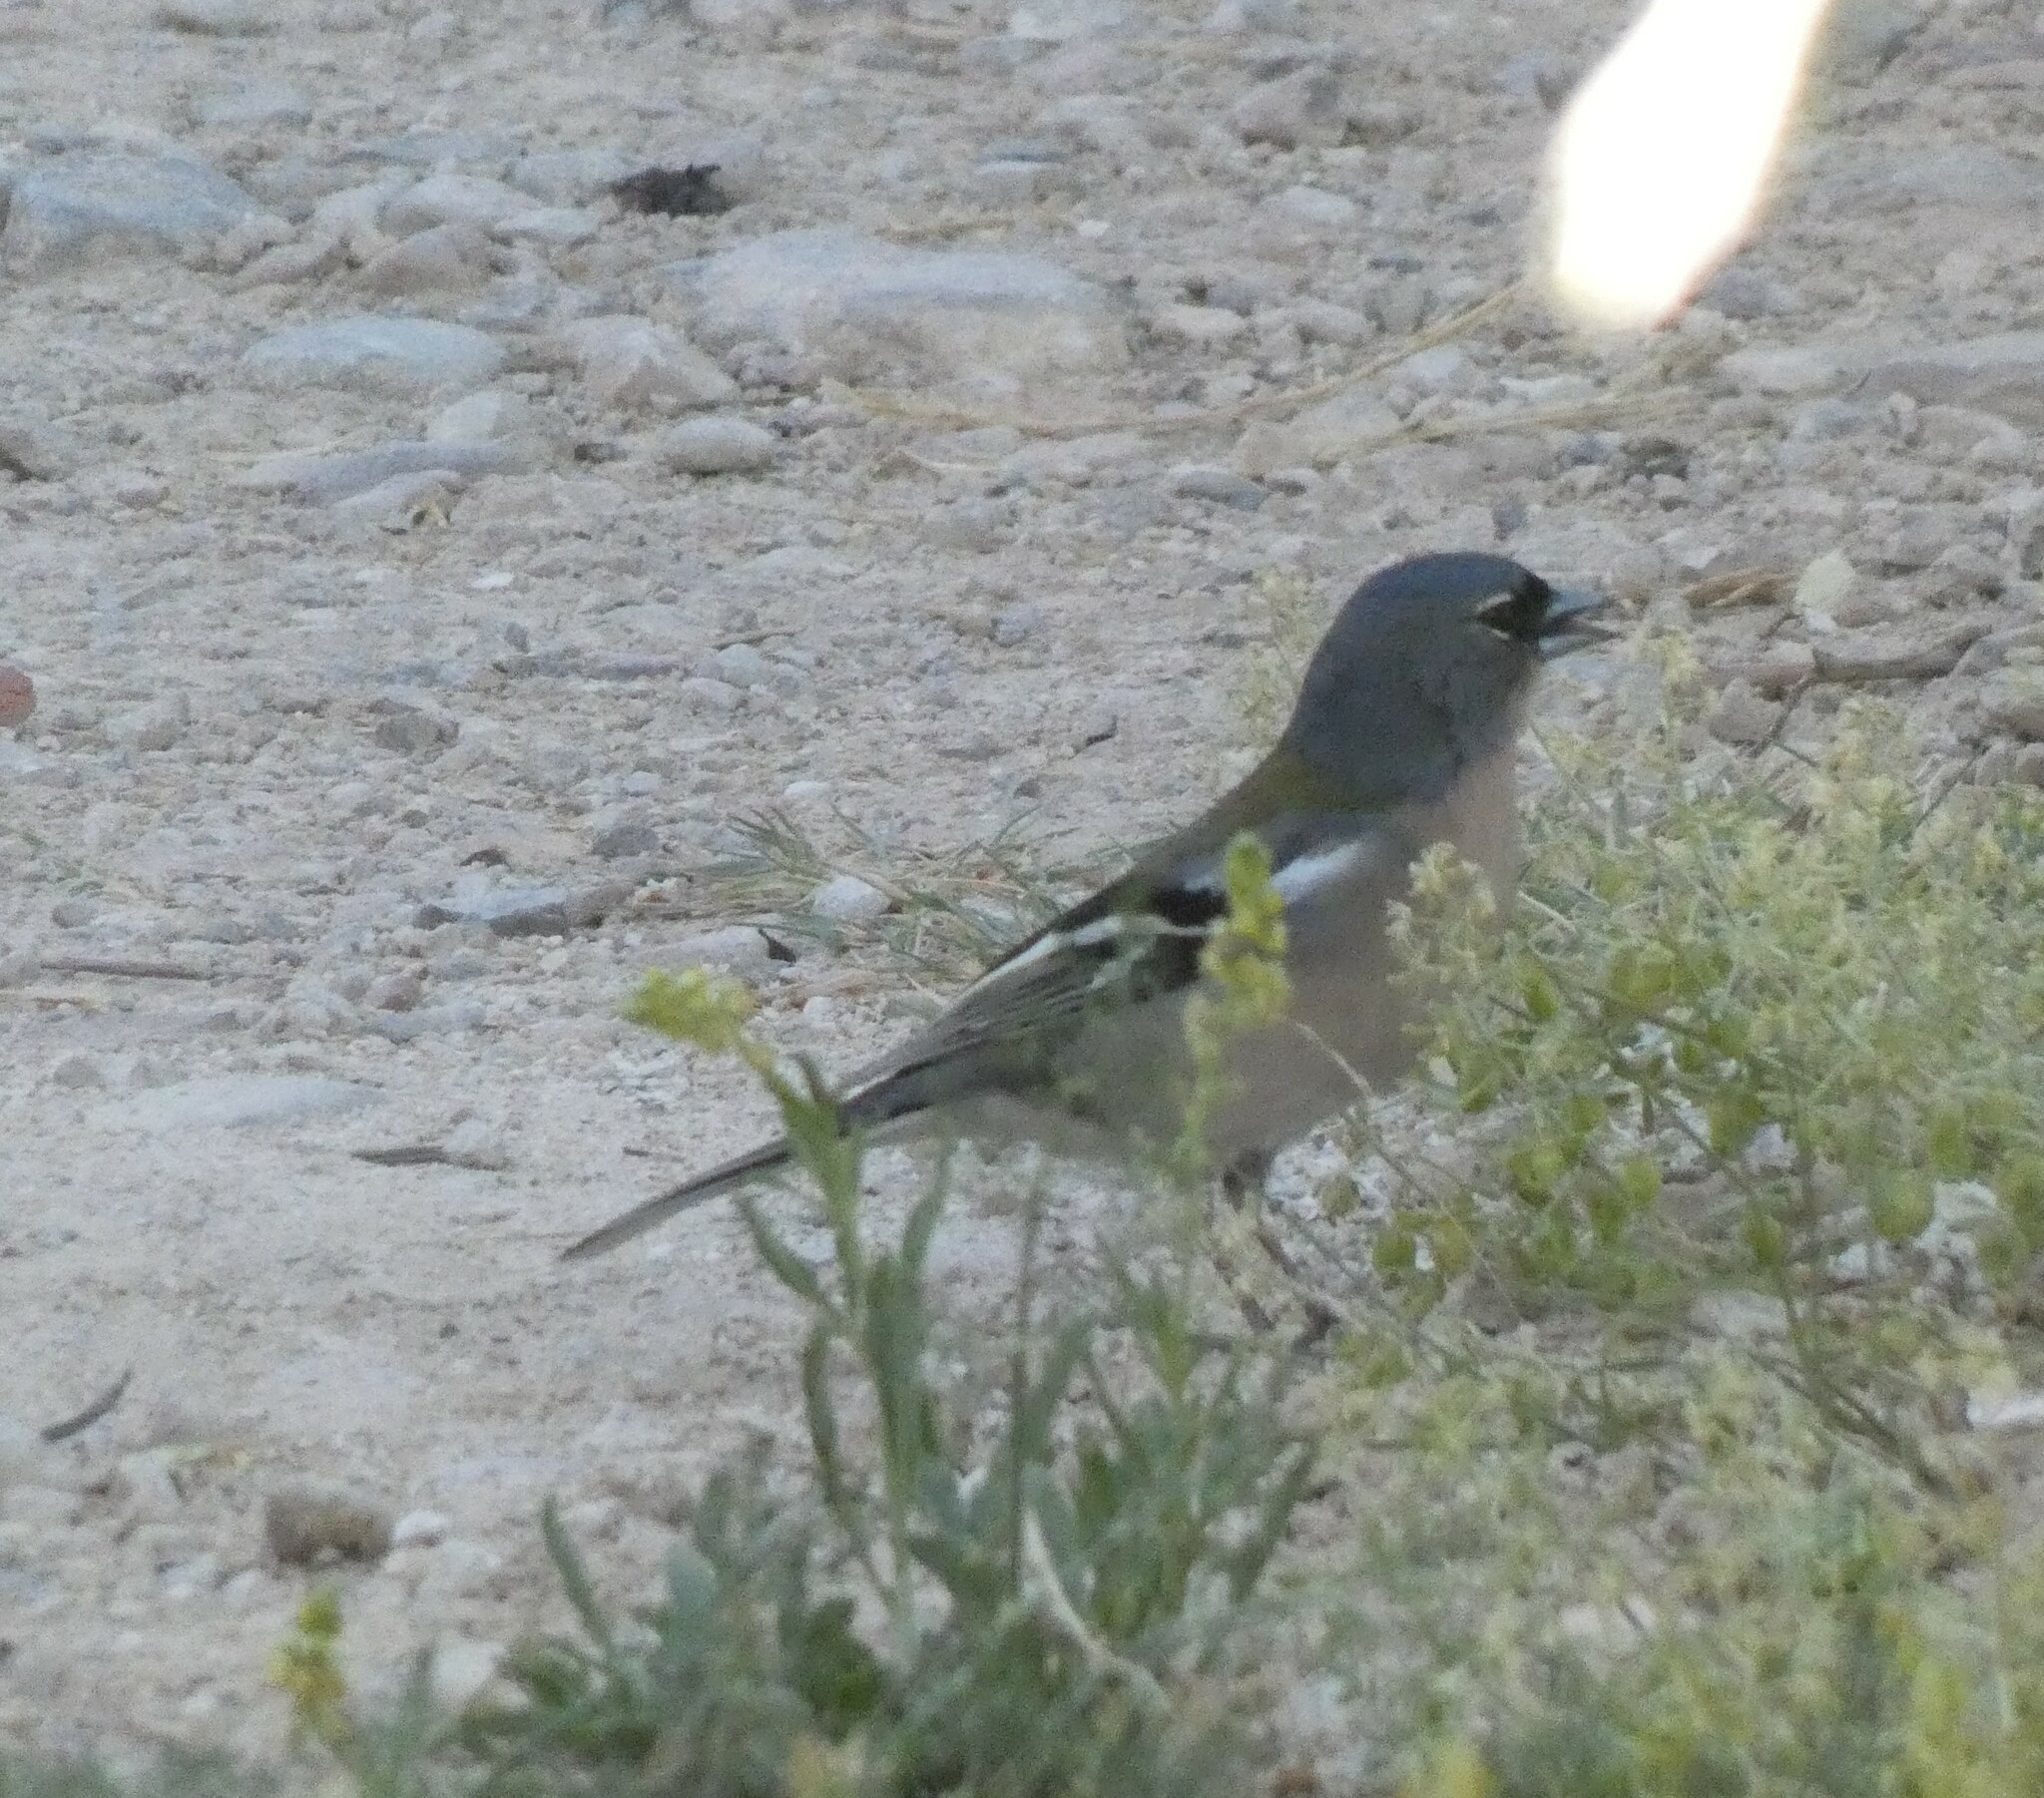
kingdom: Animalia
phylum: Chordata
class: Aves
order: Passeriformes
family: Fringillidae
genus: Fringilla
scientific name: Fringilla spodiogenys
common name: African chaffinch
